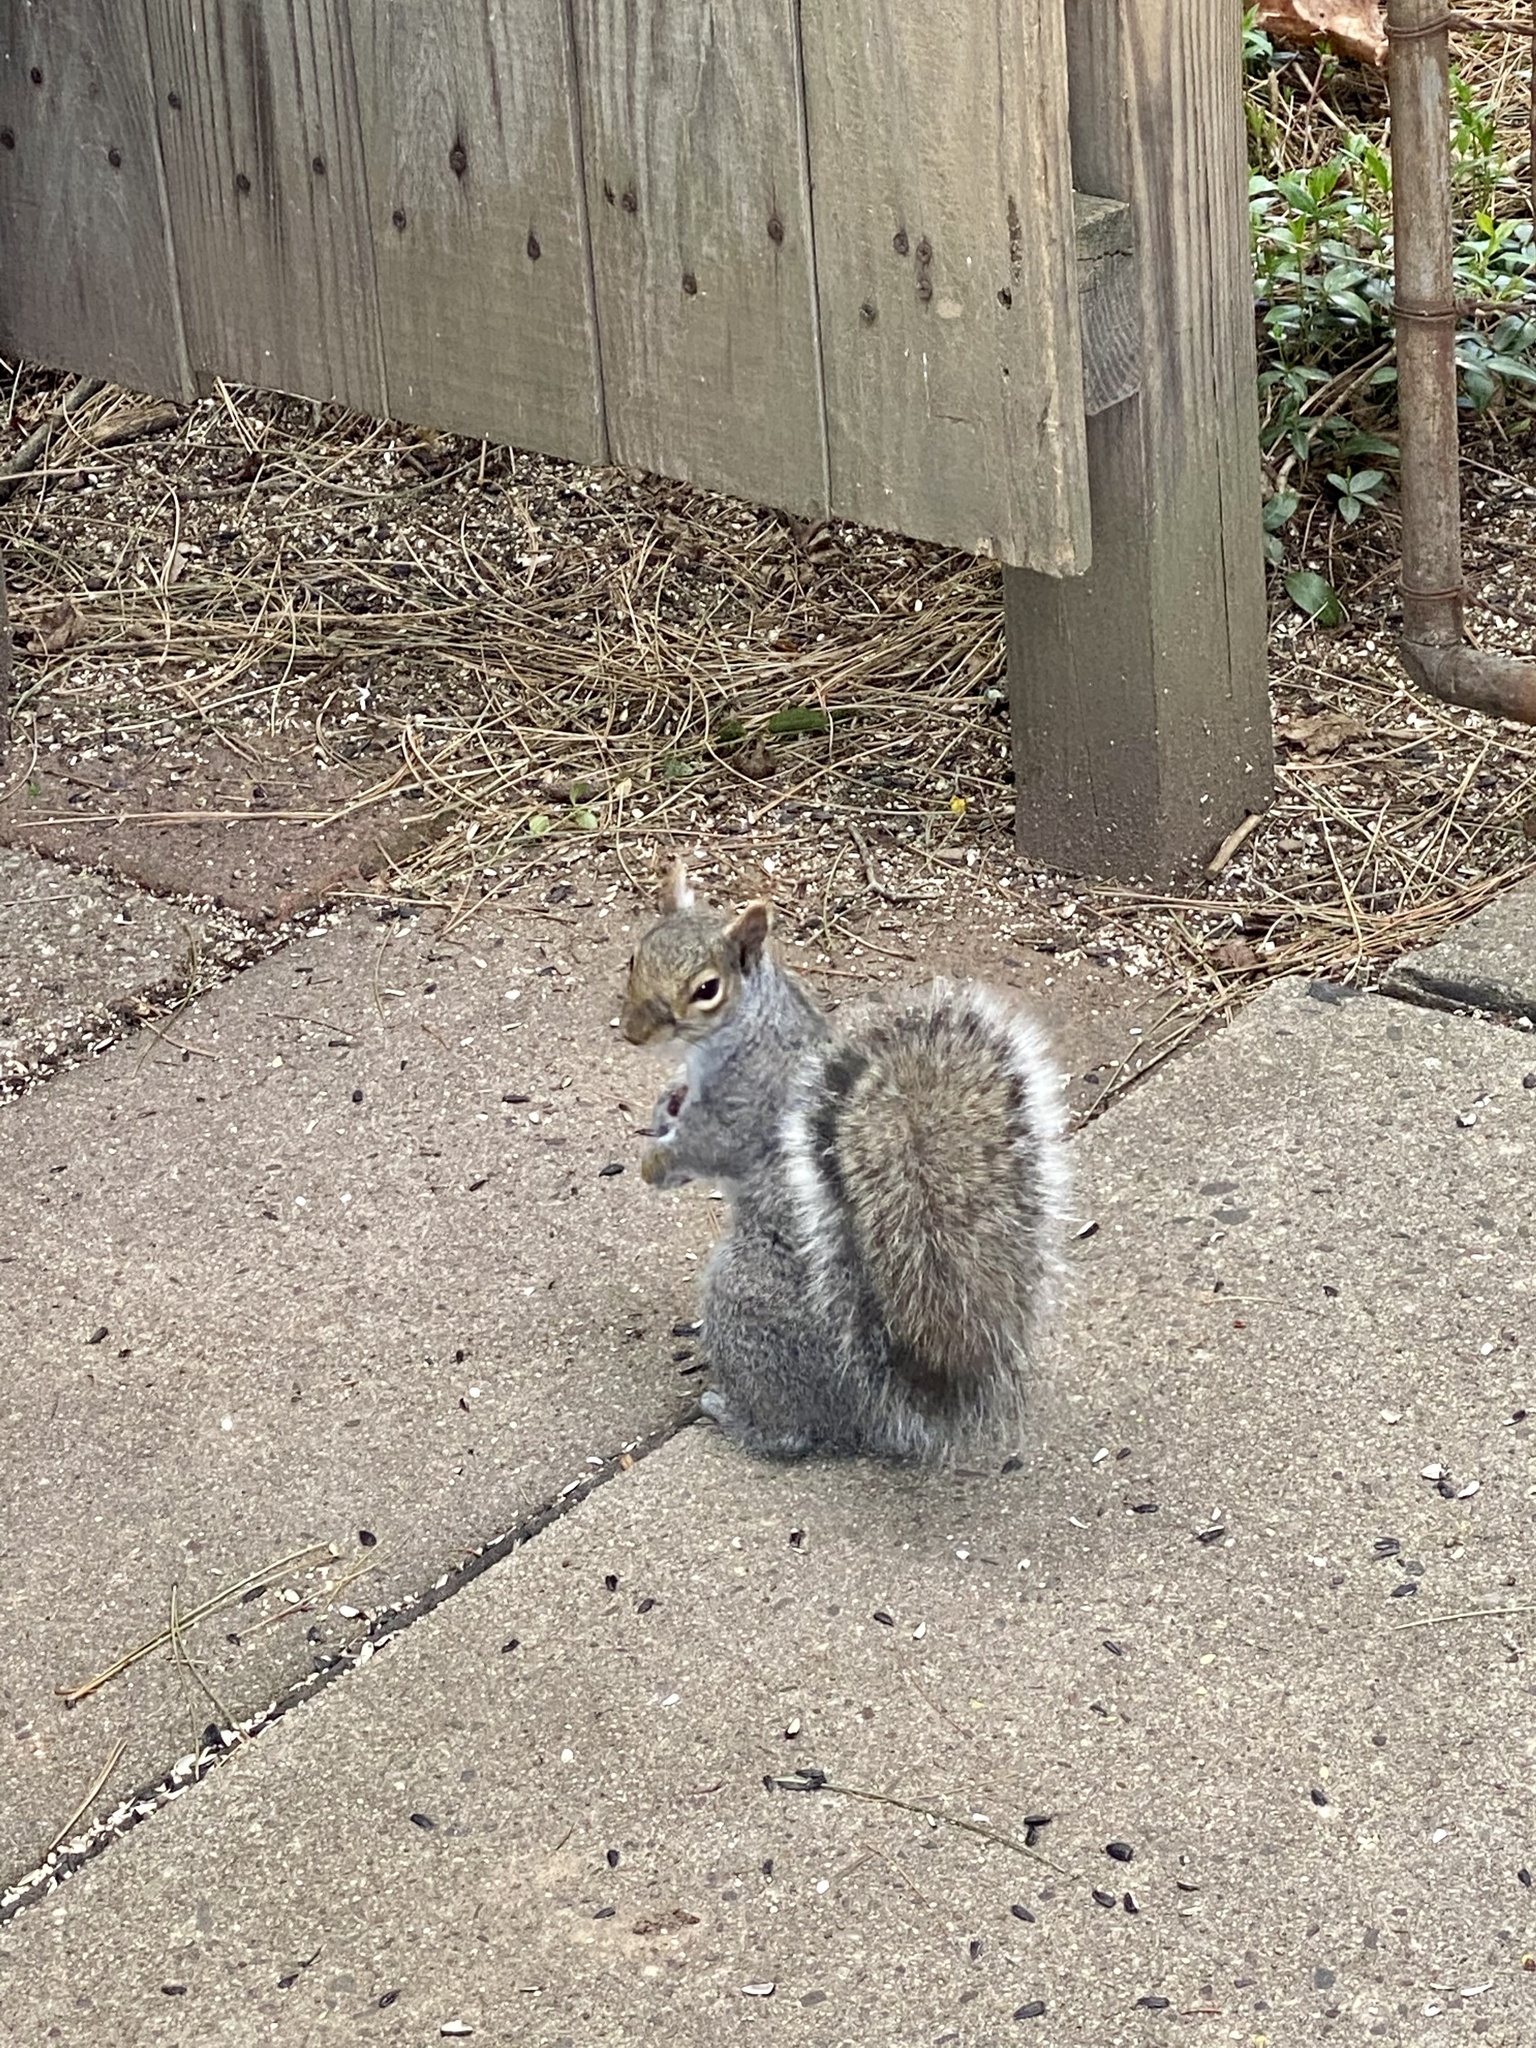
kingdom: Animalia
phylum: Chordata
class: Mammalia
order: Rodentia
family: Sciuridae
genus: Sciurus
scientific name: Sciurus carolinensis
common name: Eastern gray squirrel
